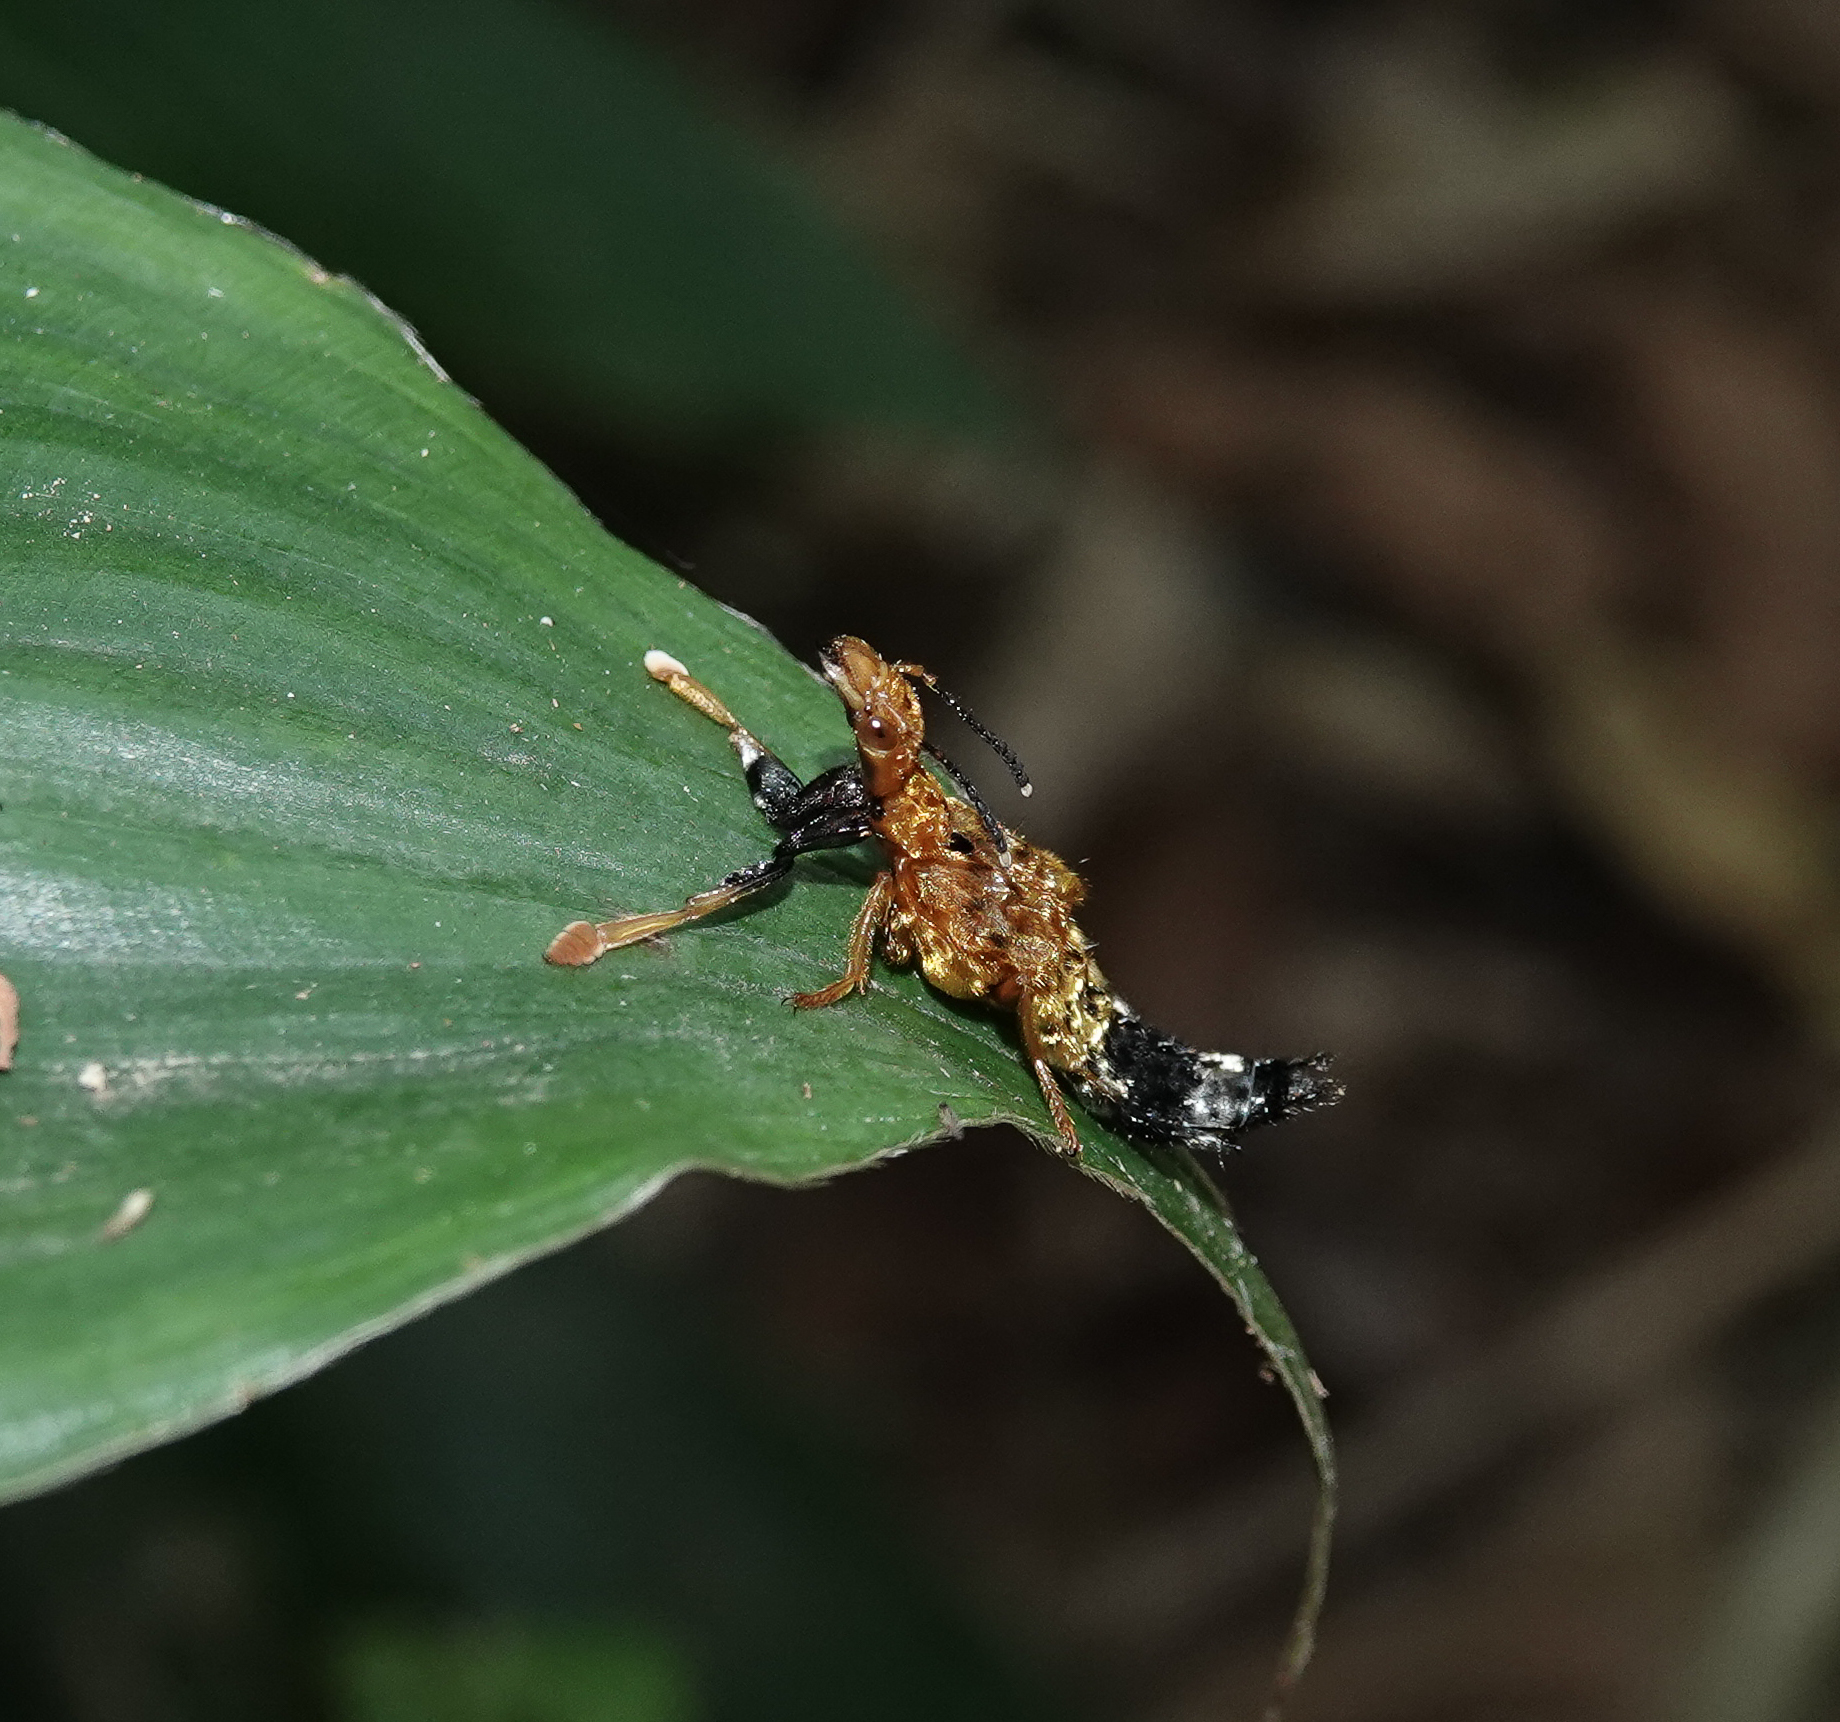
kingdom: Animalia
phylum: Arthropoda
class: Insecta
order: Coleoptera
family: Staphylinidae
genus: Rhyncocheilus
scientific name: Rhyncocheilus aureus
